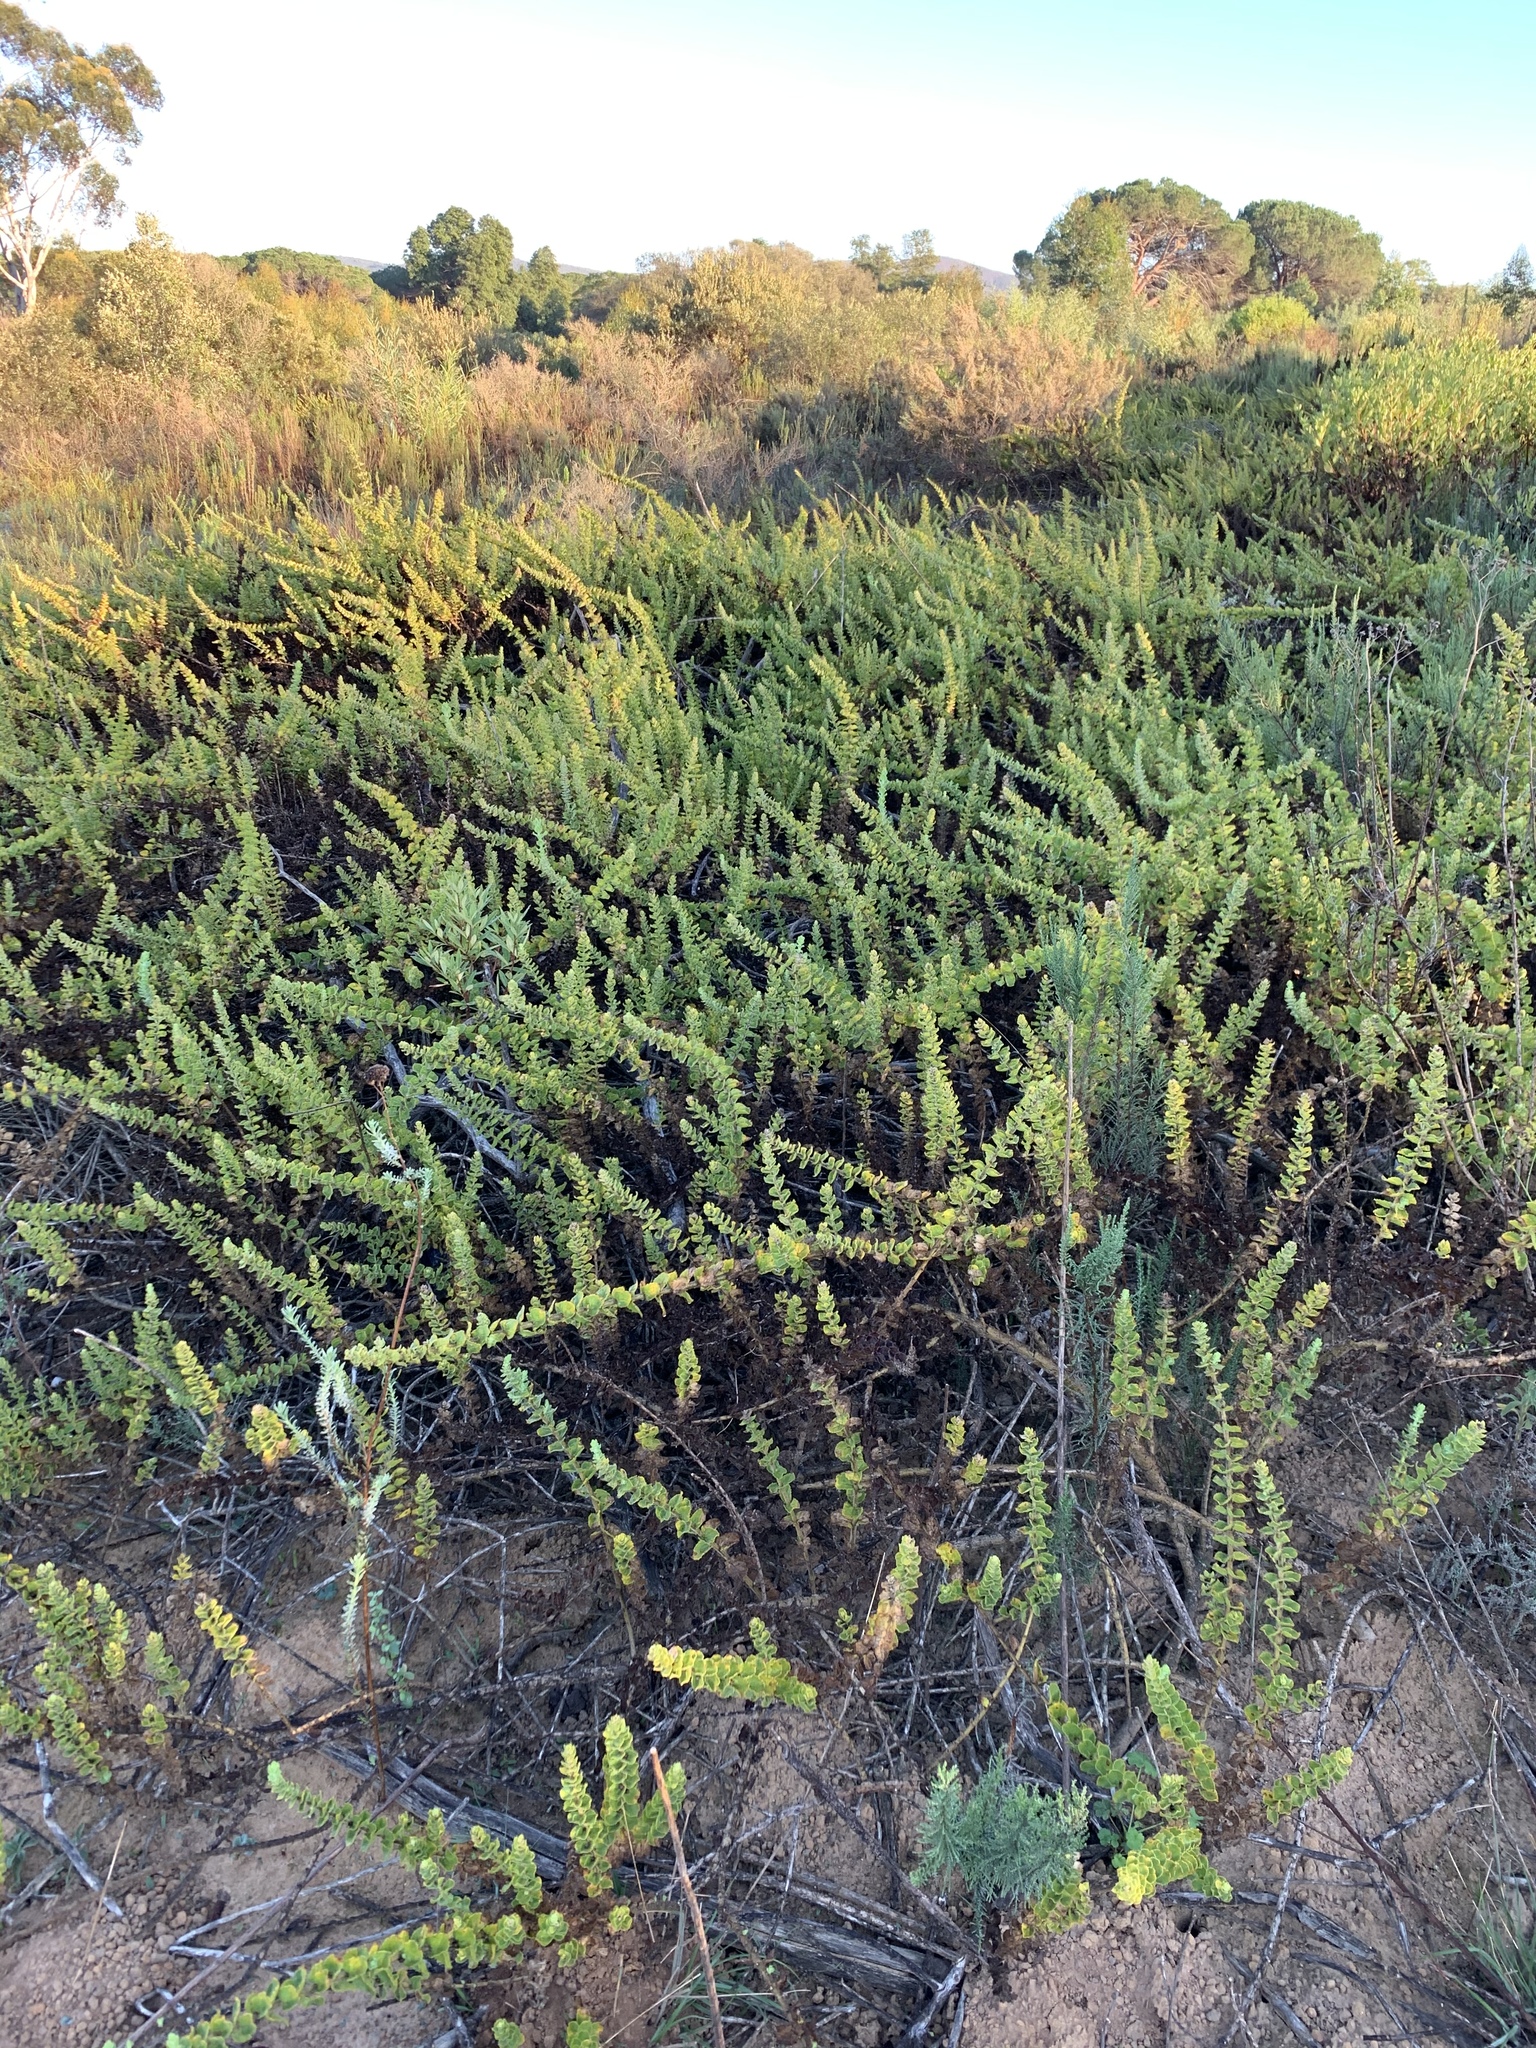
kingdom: Plantae
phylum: Tracheophyta
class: Magnoliopsida
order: Lamiales
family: Scrophulariaceae
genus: Oftia
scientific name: Oftia africana
